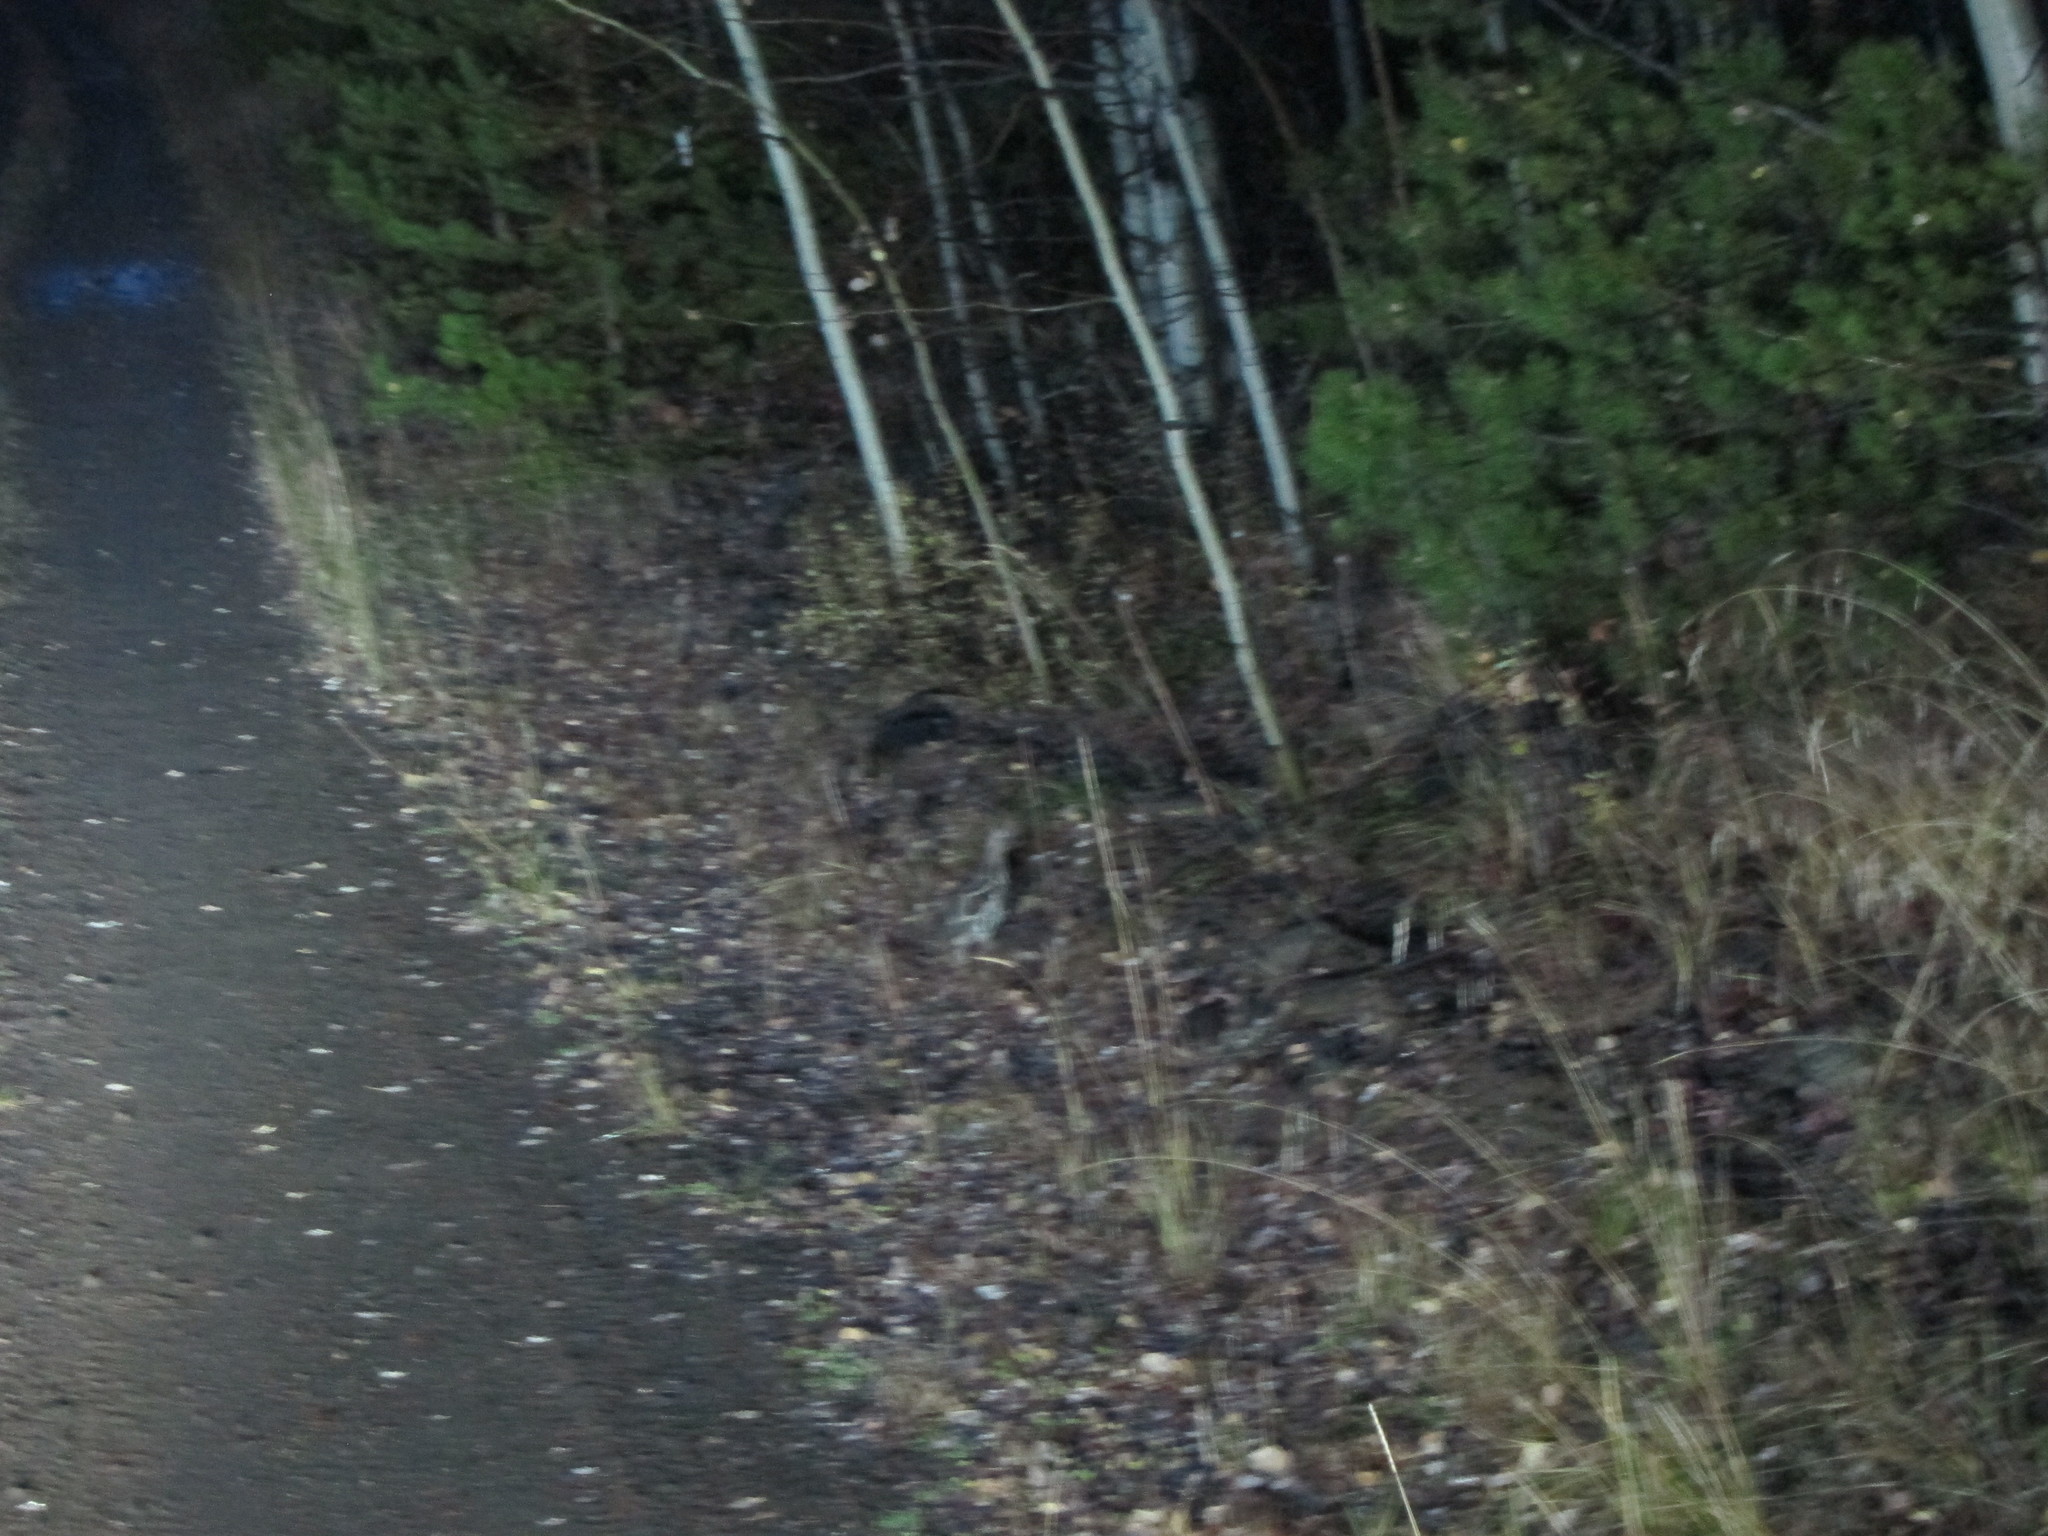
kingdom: Animalia
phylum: Chordata
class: Aves
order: Galliformes
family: Phasianidae
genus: Bonasa
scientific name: Bonasa umbellus
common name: Ruffed grouse
